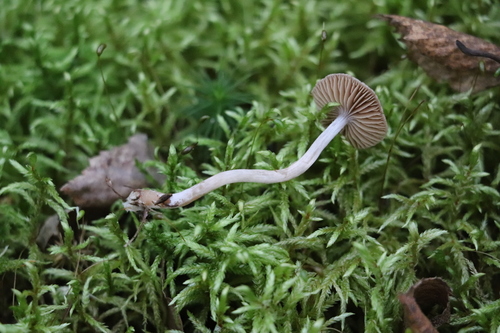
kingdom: Fungi
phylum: Basidiomycota
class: Agaricomycetes
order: Agaricales
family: Cortinariaceae
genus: Cortinarius
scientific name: Cortinarius
